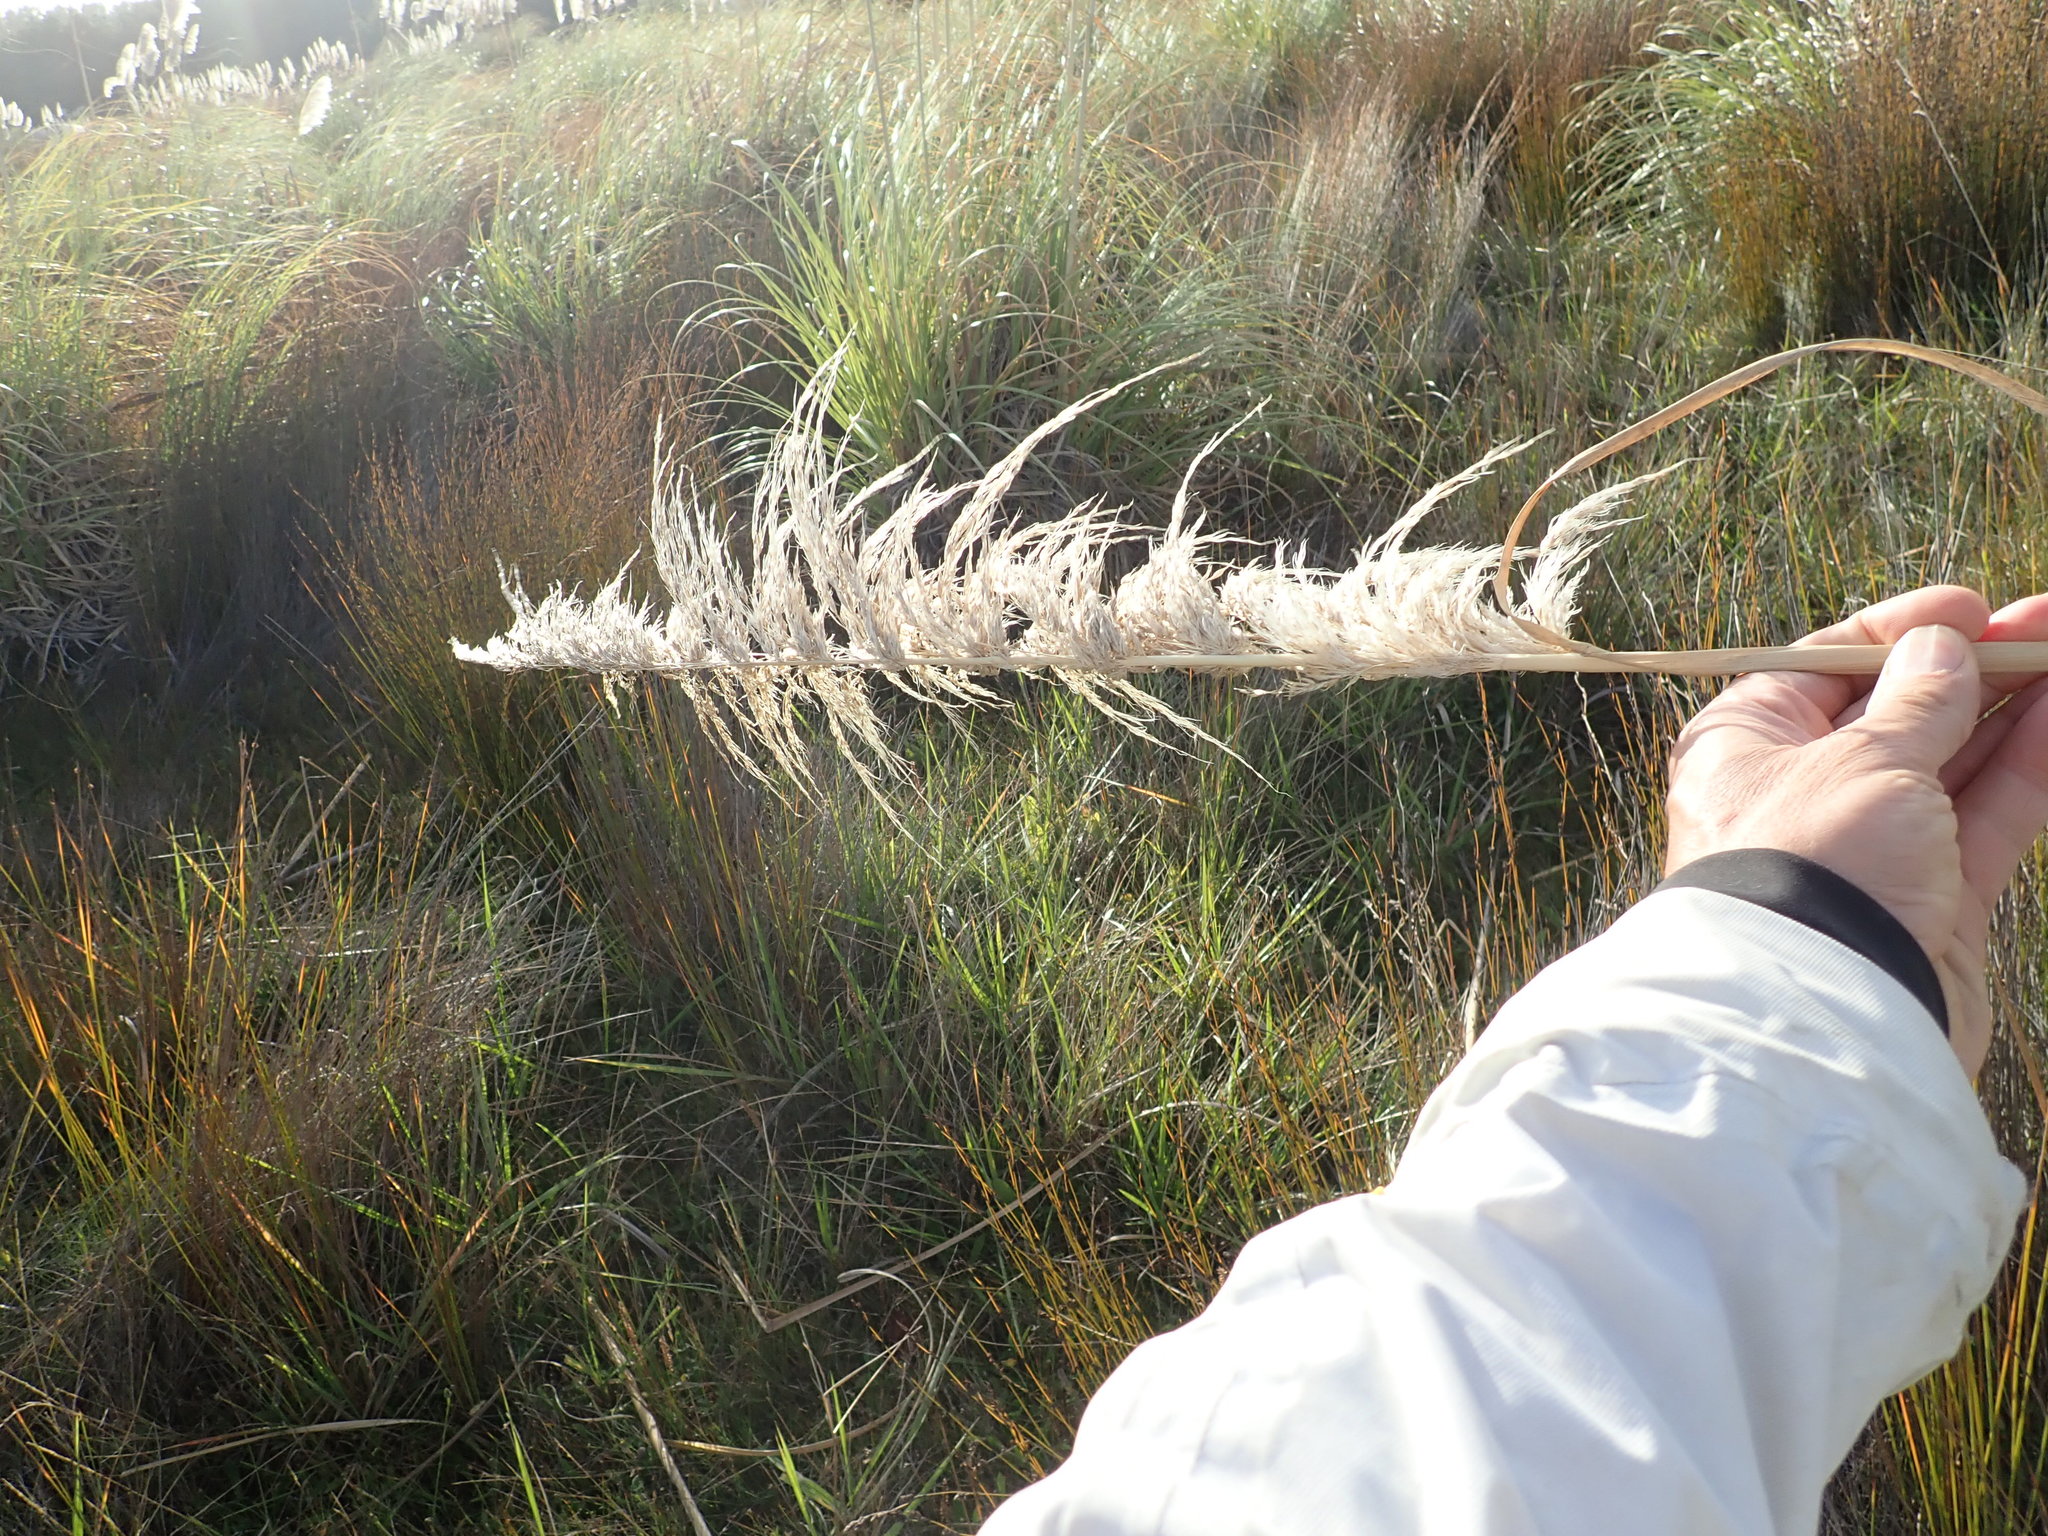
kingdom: Plantae
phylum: Tracheophyta
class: Liliopsida
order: Poales
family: Poaceae
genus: Cortaderia
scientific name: Cortaderia selloana
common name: Uruguayan pampas grass
